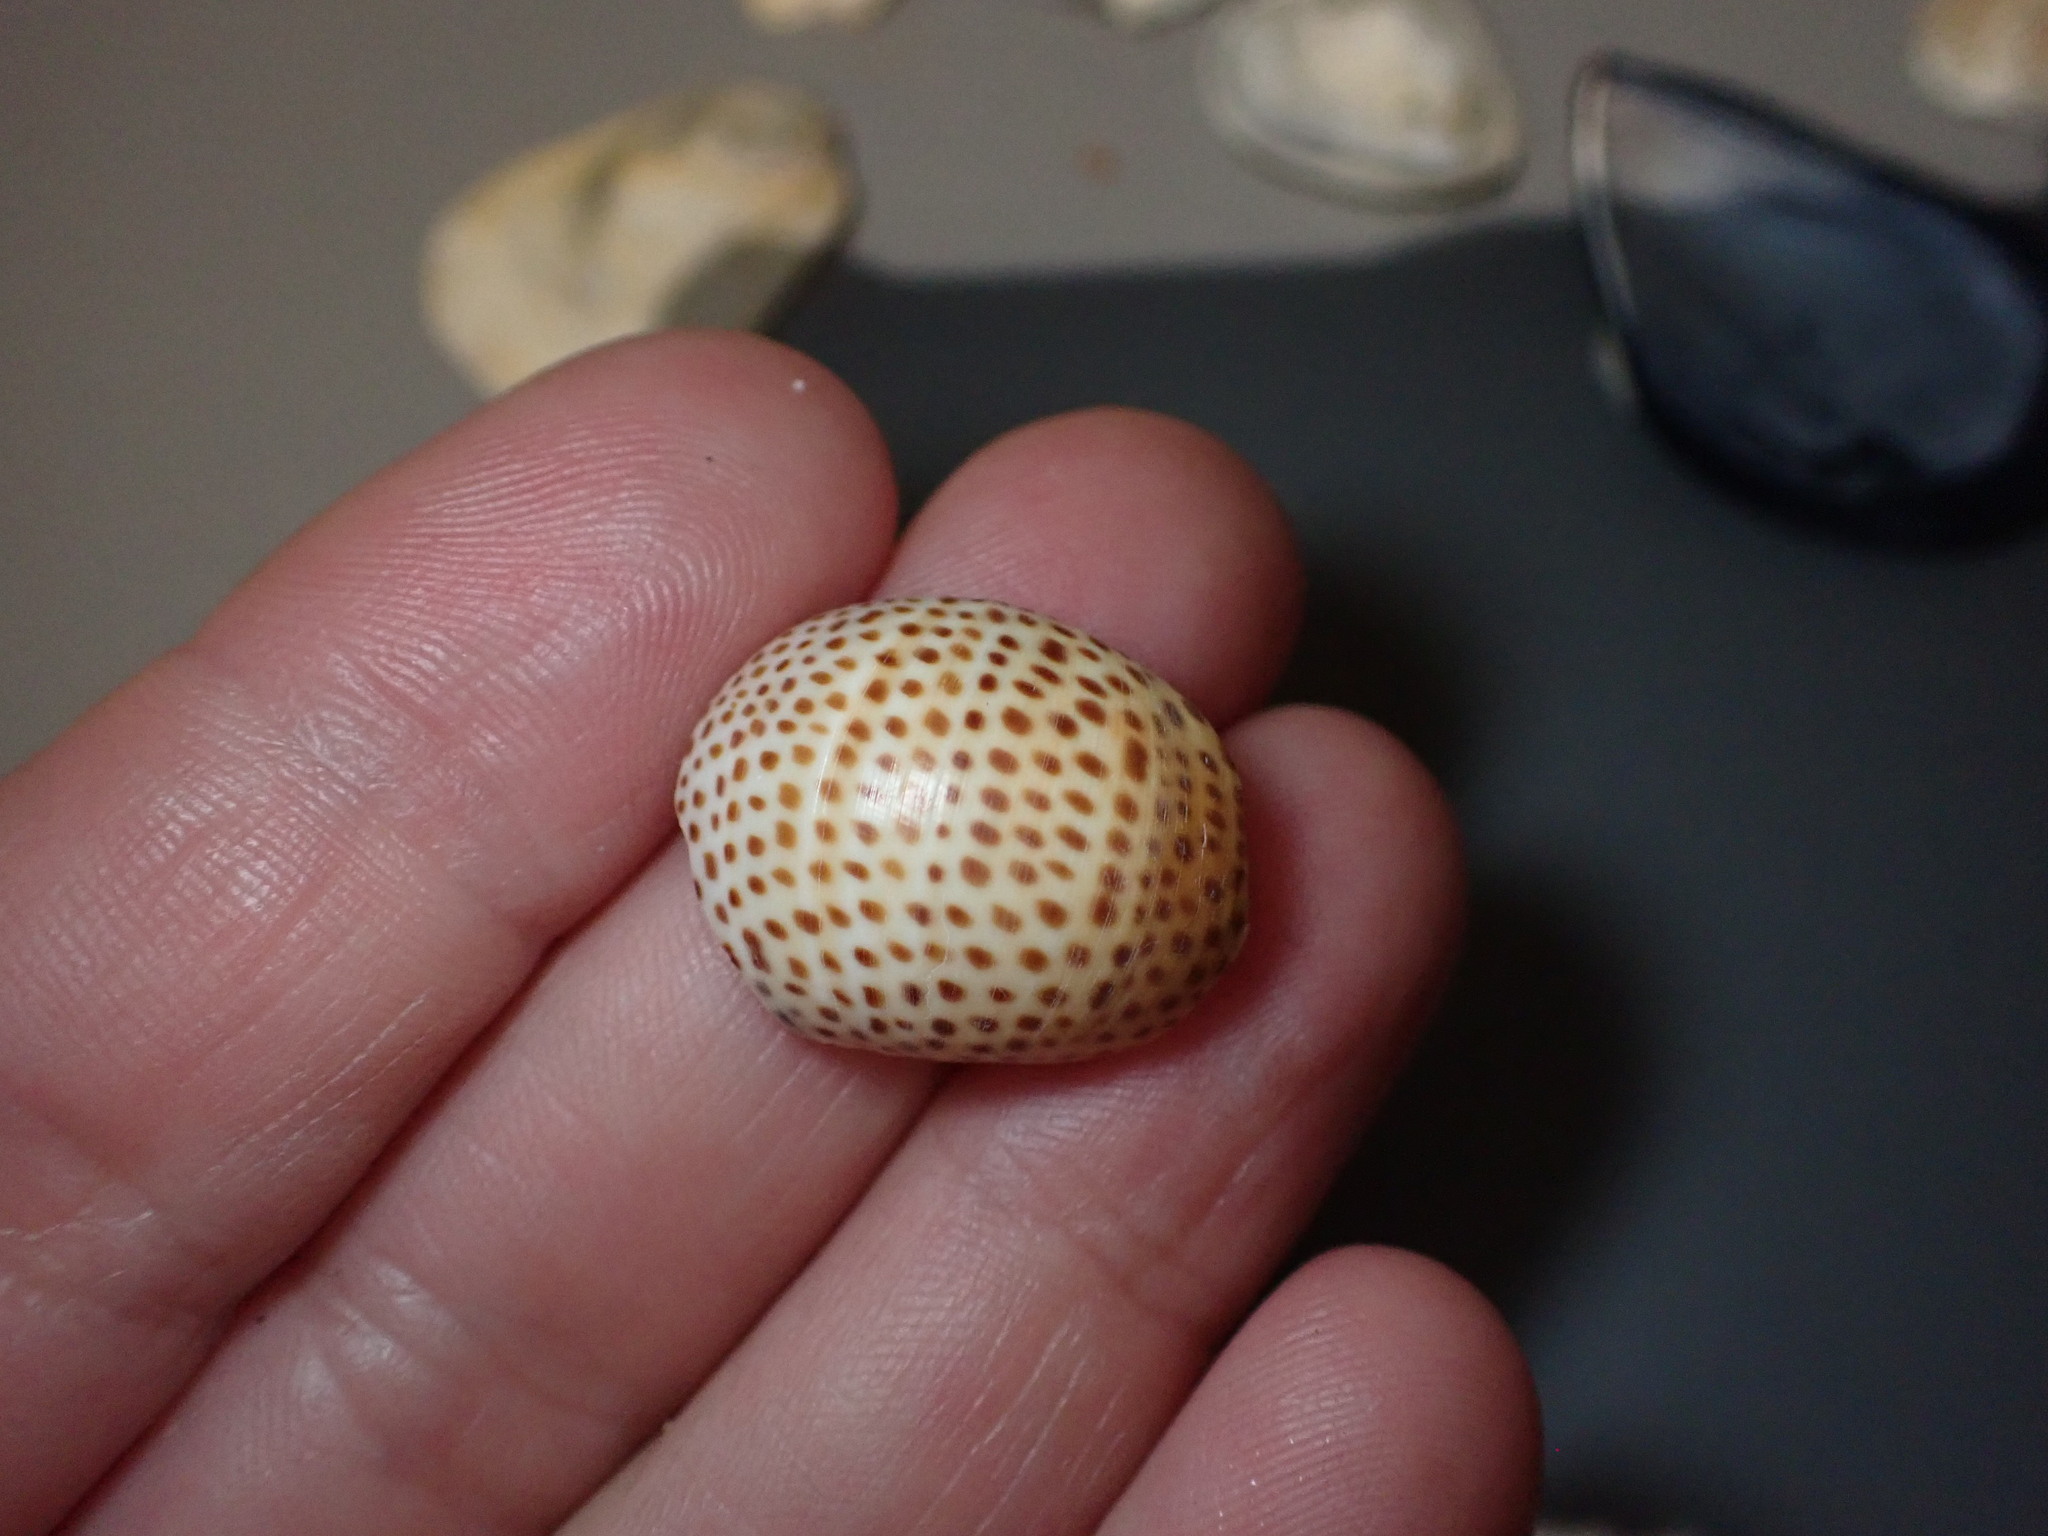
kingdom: Animalia
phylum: Mollusca
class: Gastropoda
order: Littorinimorpha
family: Naticidae
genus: Naticarius
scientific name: Naticarius stercusmuscarum
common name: Fly-speck moonsnail
